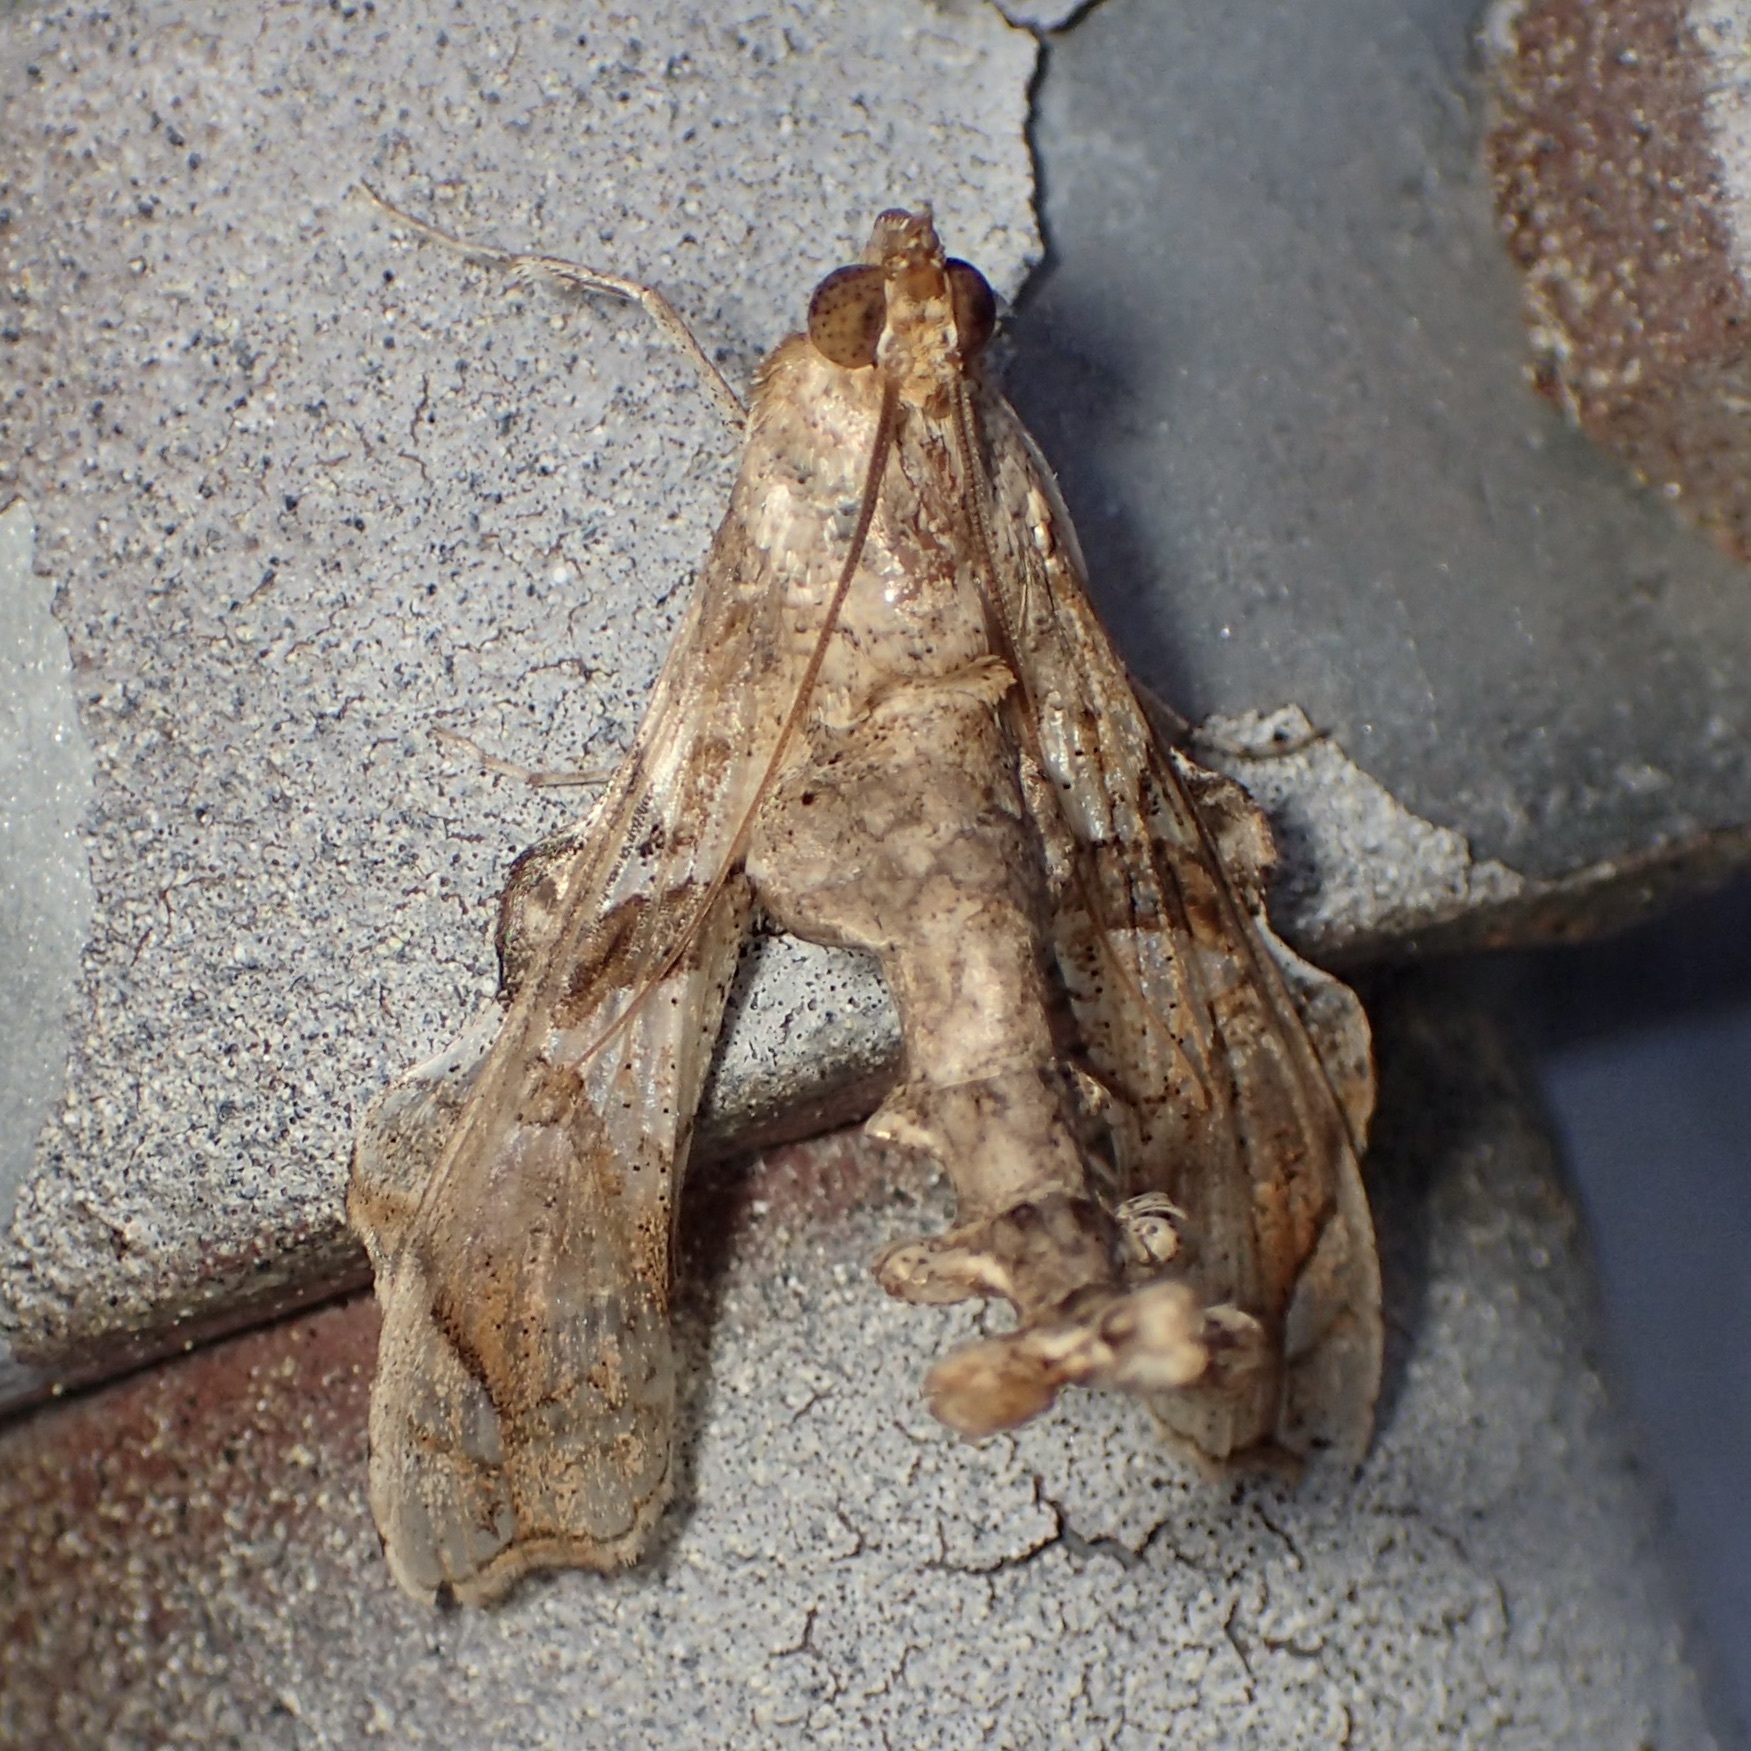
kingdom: Animalia
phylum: Arthropoda
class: Insecta
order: Lepidoptera
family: Crambidae
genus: Terastia
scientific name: Terastia meticulosalis
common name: Moth
